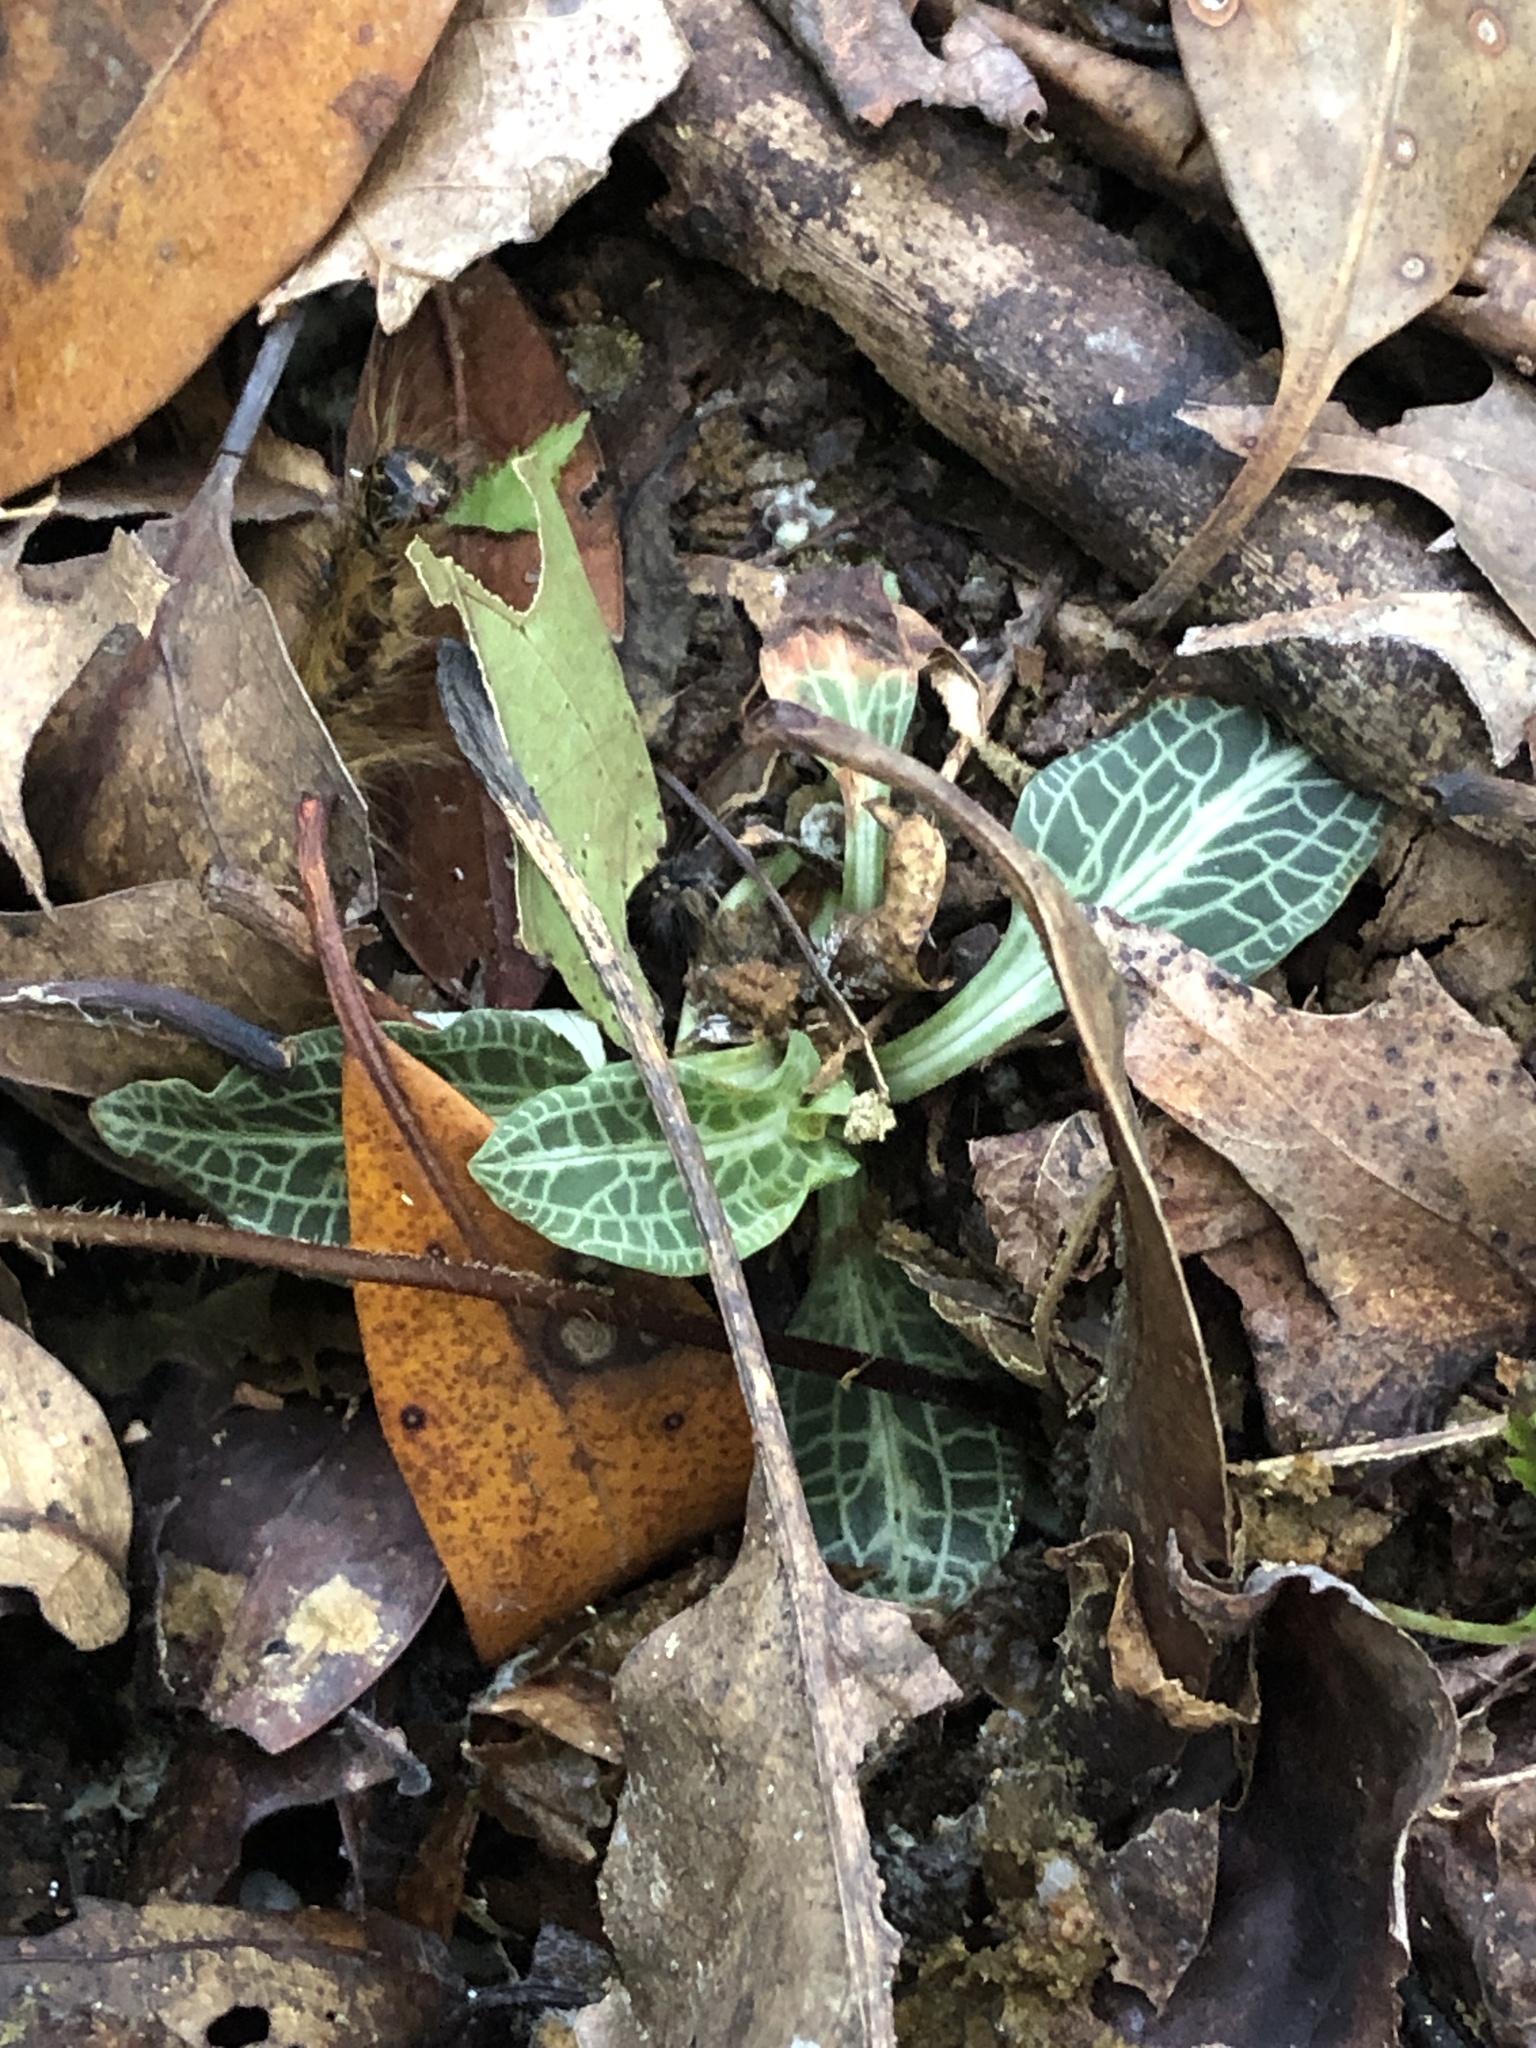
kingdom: Plantae
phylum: Tracheophyta
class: Liliopsida
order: Asparagales
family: Orchidaceae
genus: Goodyera
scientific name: Goodyera pubescens
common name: Downy rattlesnake-plantain
